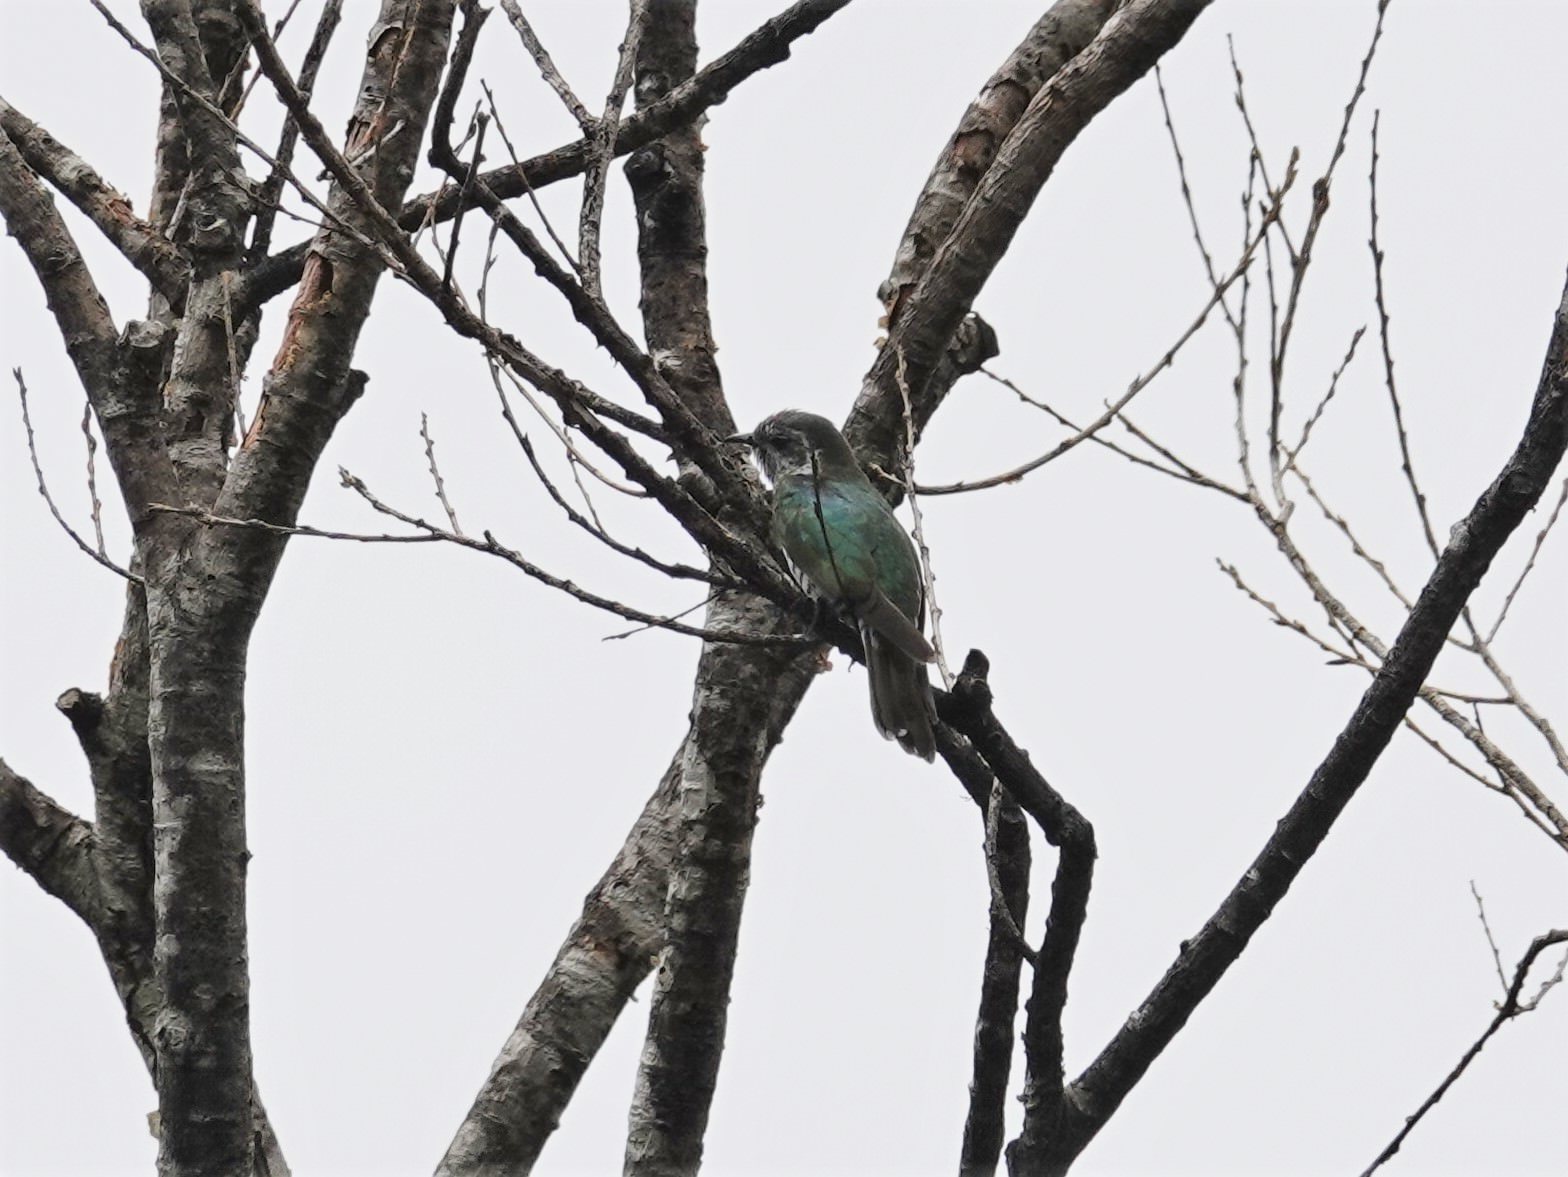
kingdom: Animalia
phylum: Chordata
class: Aves
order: Cuculiformes
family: Cuculidae
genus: Chrysococcyx
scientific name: Chrysococcyx lucidus
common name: Shining bronze cuckoo
